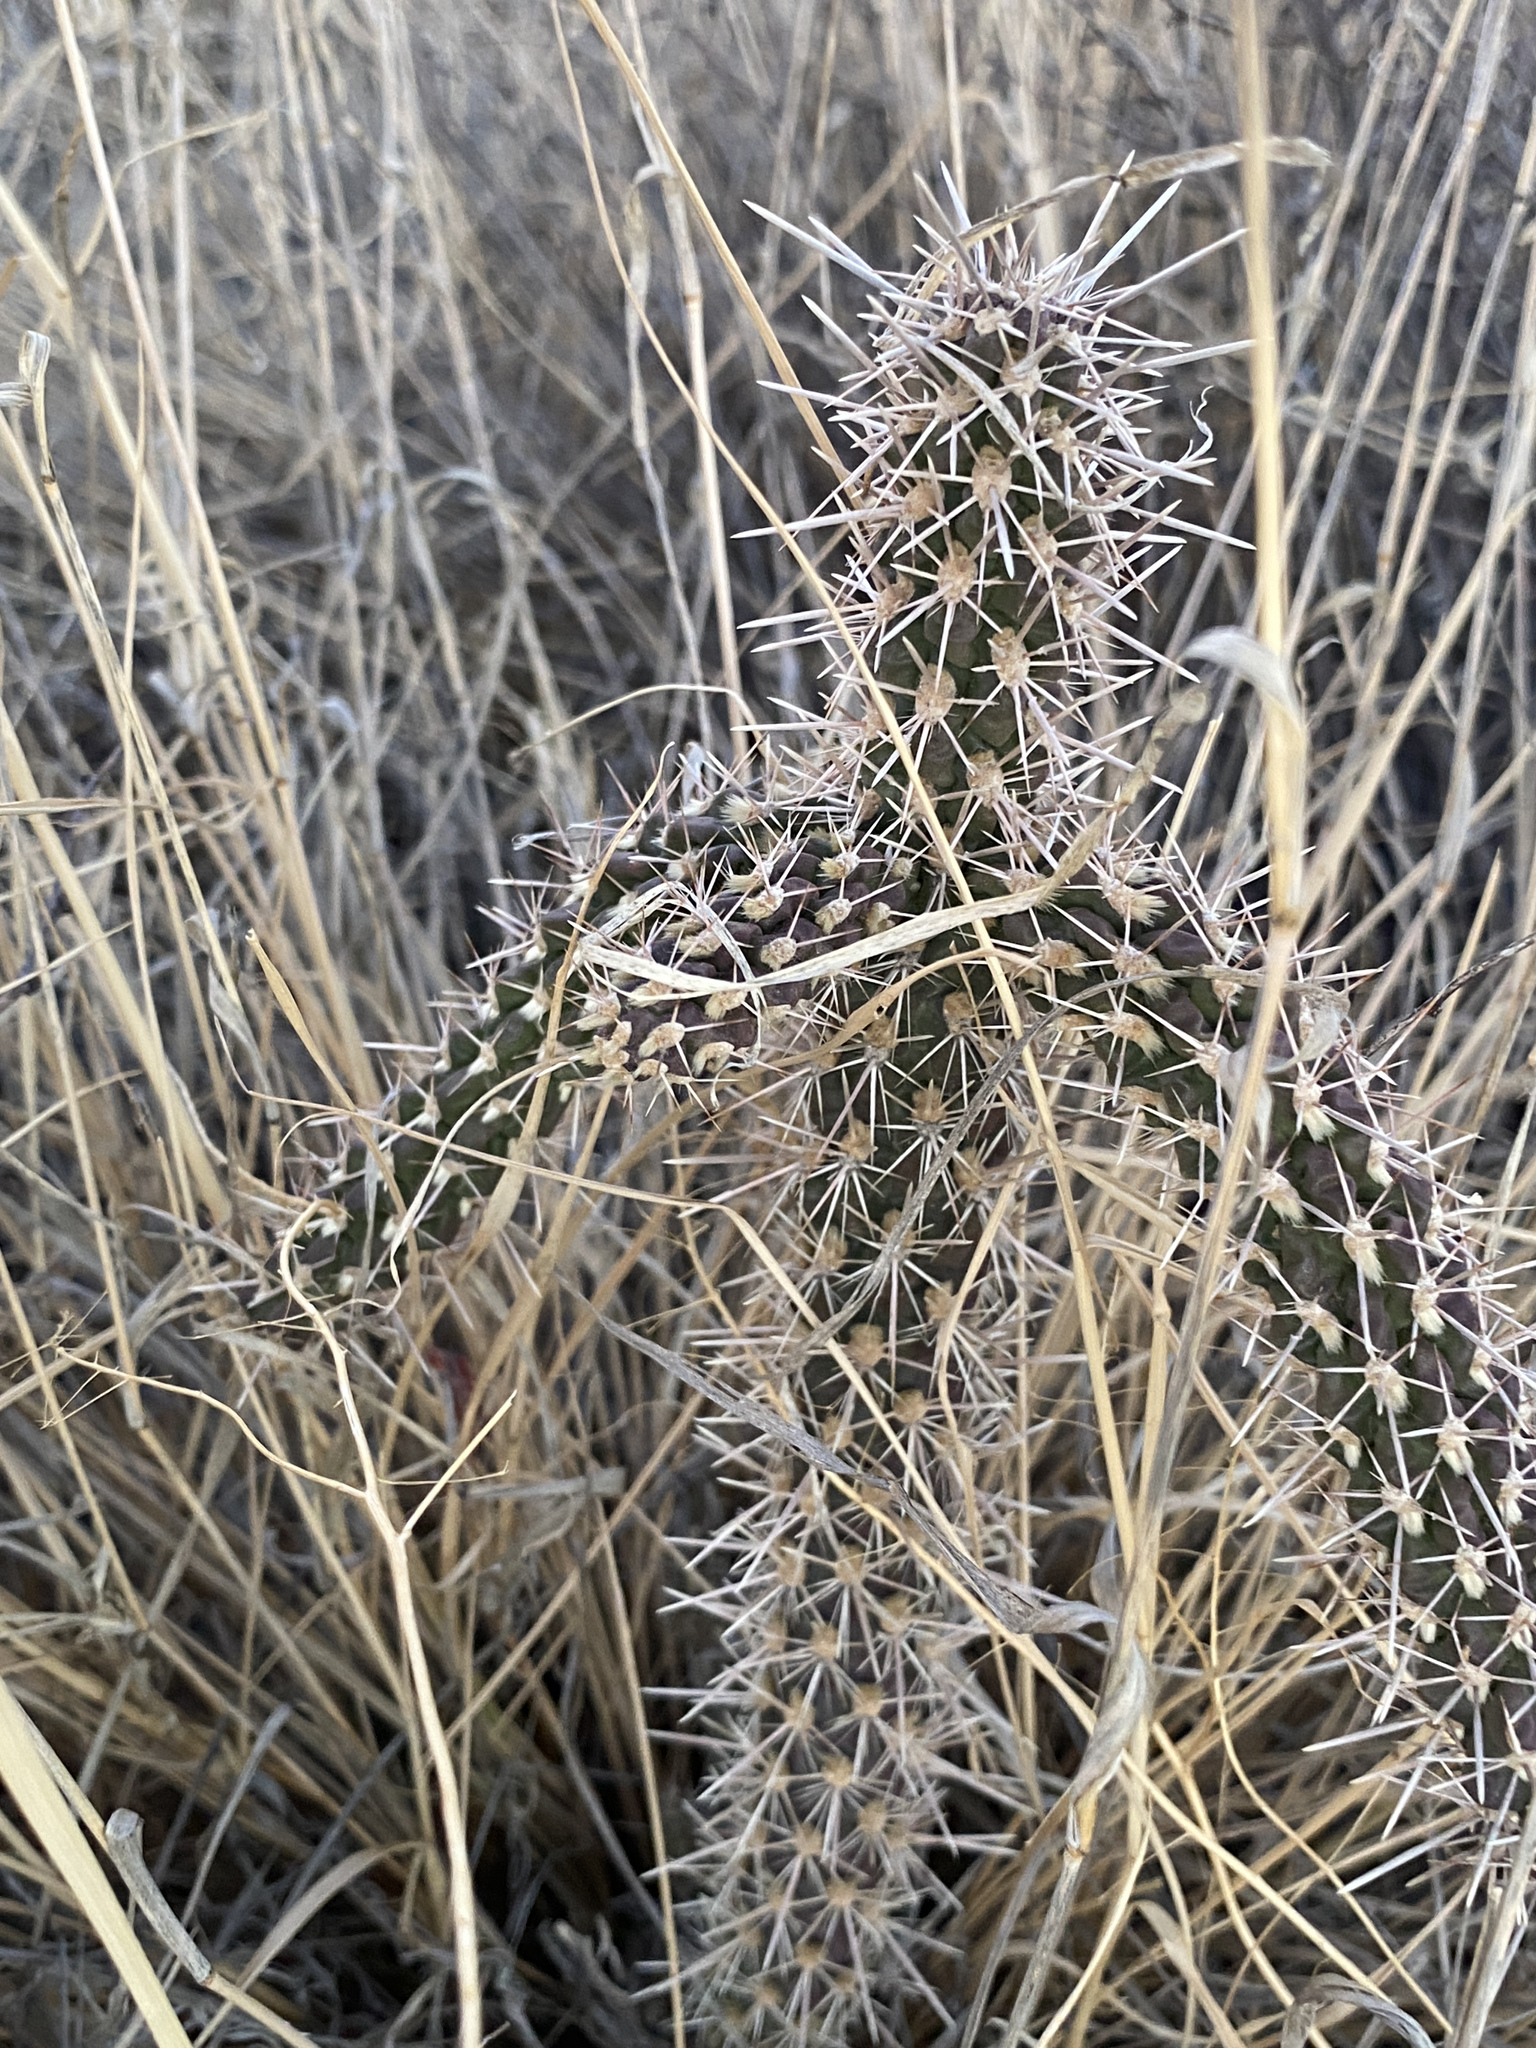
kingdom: Plantae
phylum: Tracheophyta
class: Magnoliopsida
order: Caryophyllales
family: Cactaceae
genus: Cylindropuntia
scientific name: Cylindropuntia imbricata
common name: Candelabrum cactus
